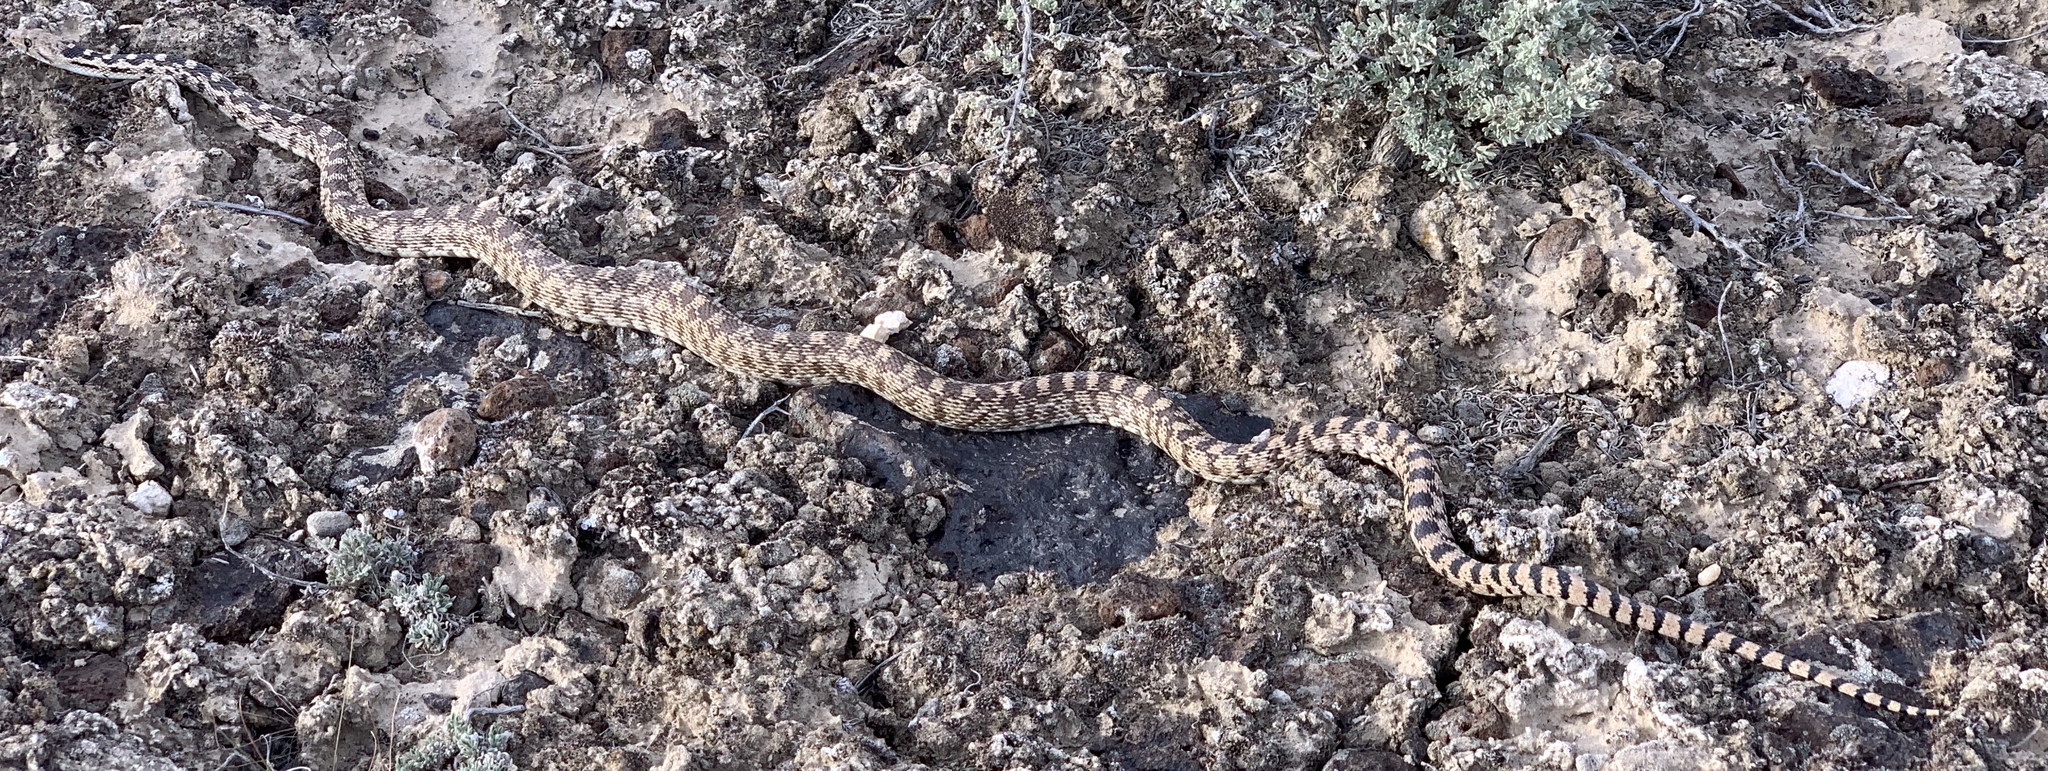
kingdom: Animalia
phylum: Chordata
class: Squamata
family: Colubridae
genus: Pituophis
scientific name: Pituophis catenifer
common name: Gopher snake
